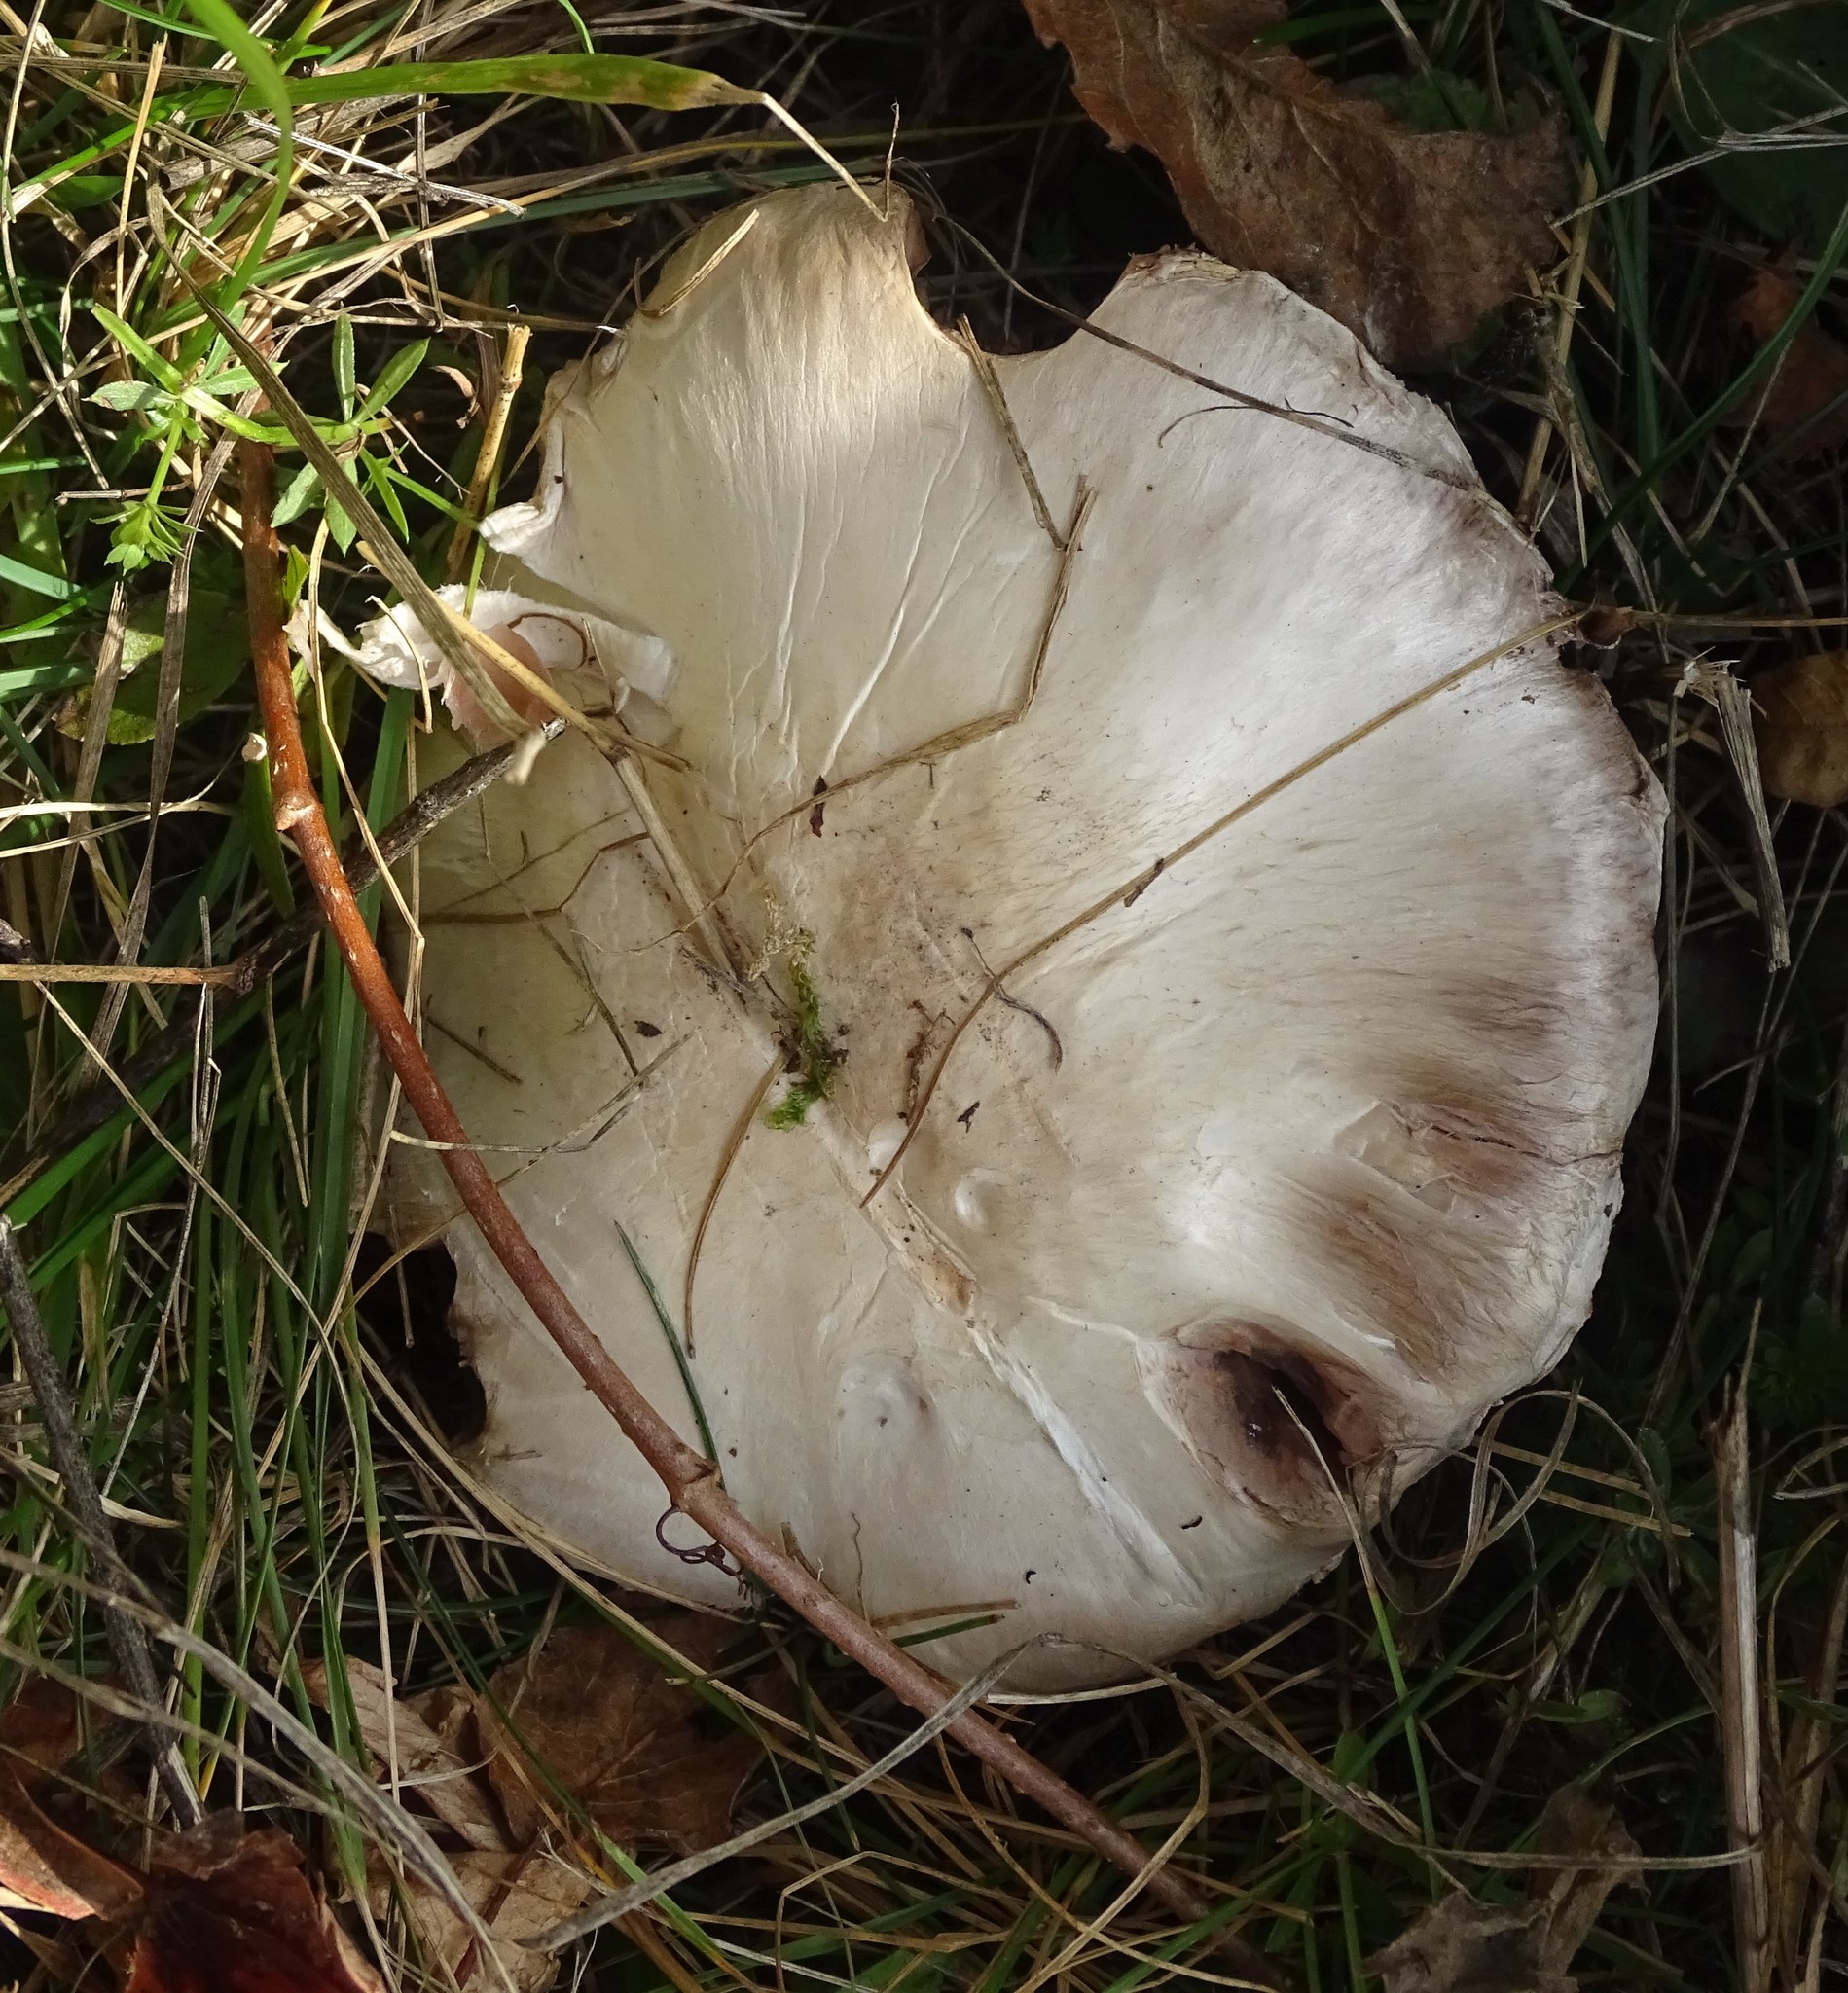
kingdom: Fungi
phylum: Basidiomycota
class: Agaricomycetes
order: Agaricales
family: Agaricaceae
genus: Agaricus
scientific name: Agaricus campestris
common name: Field mushroom
